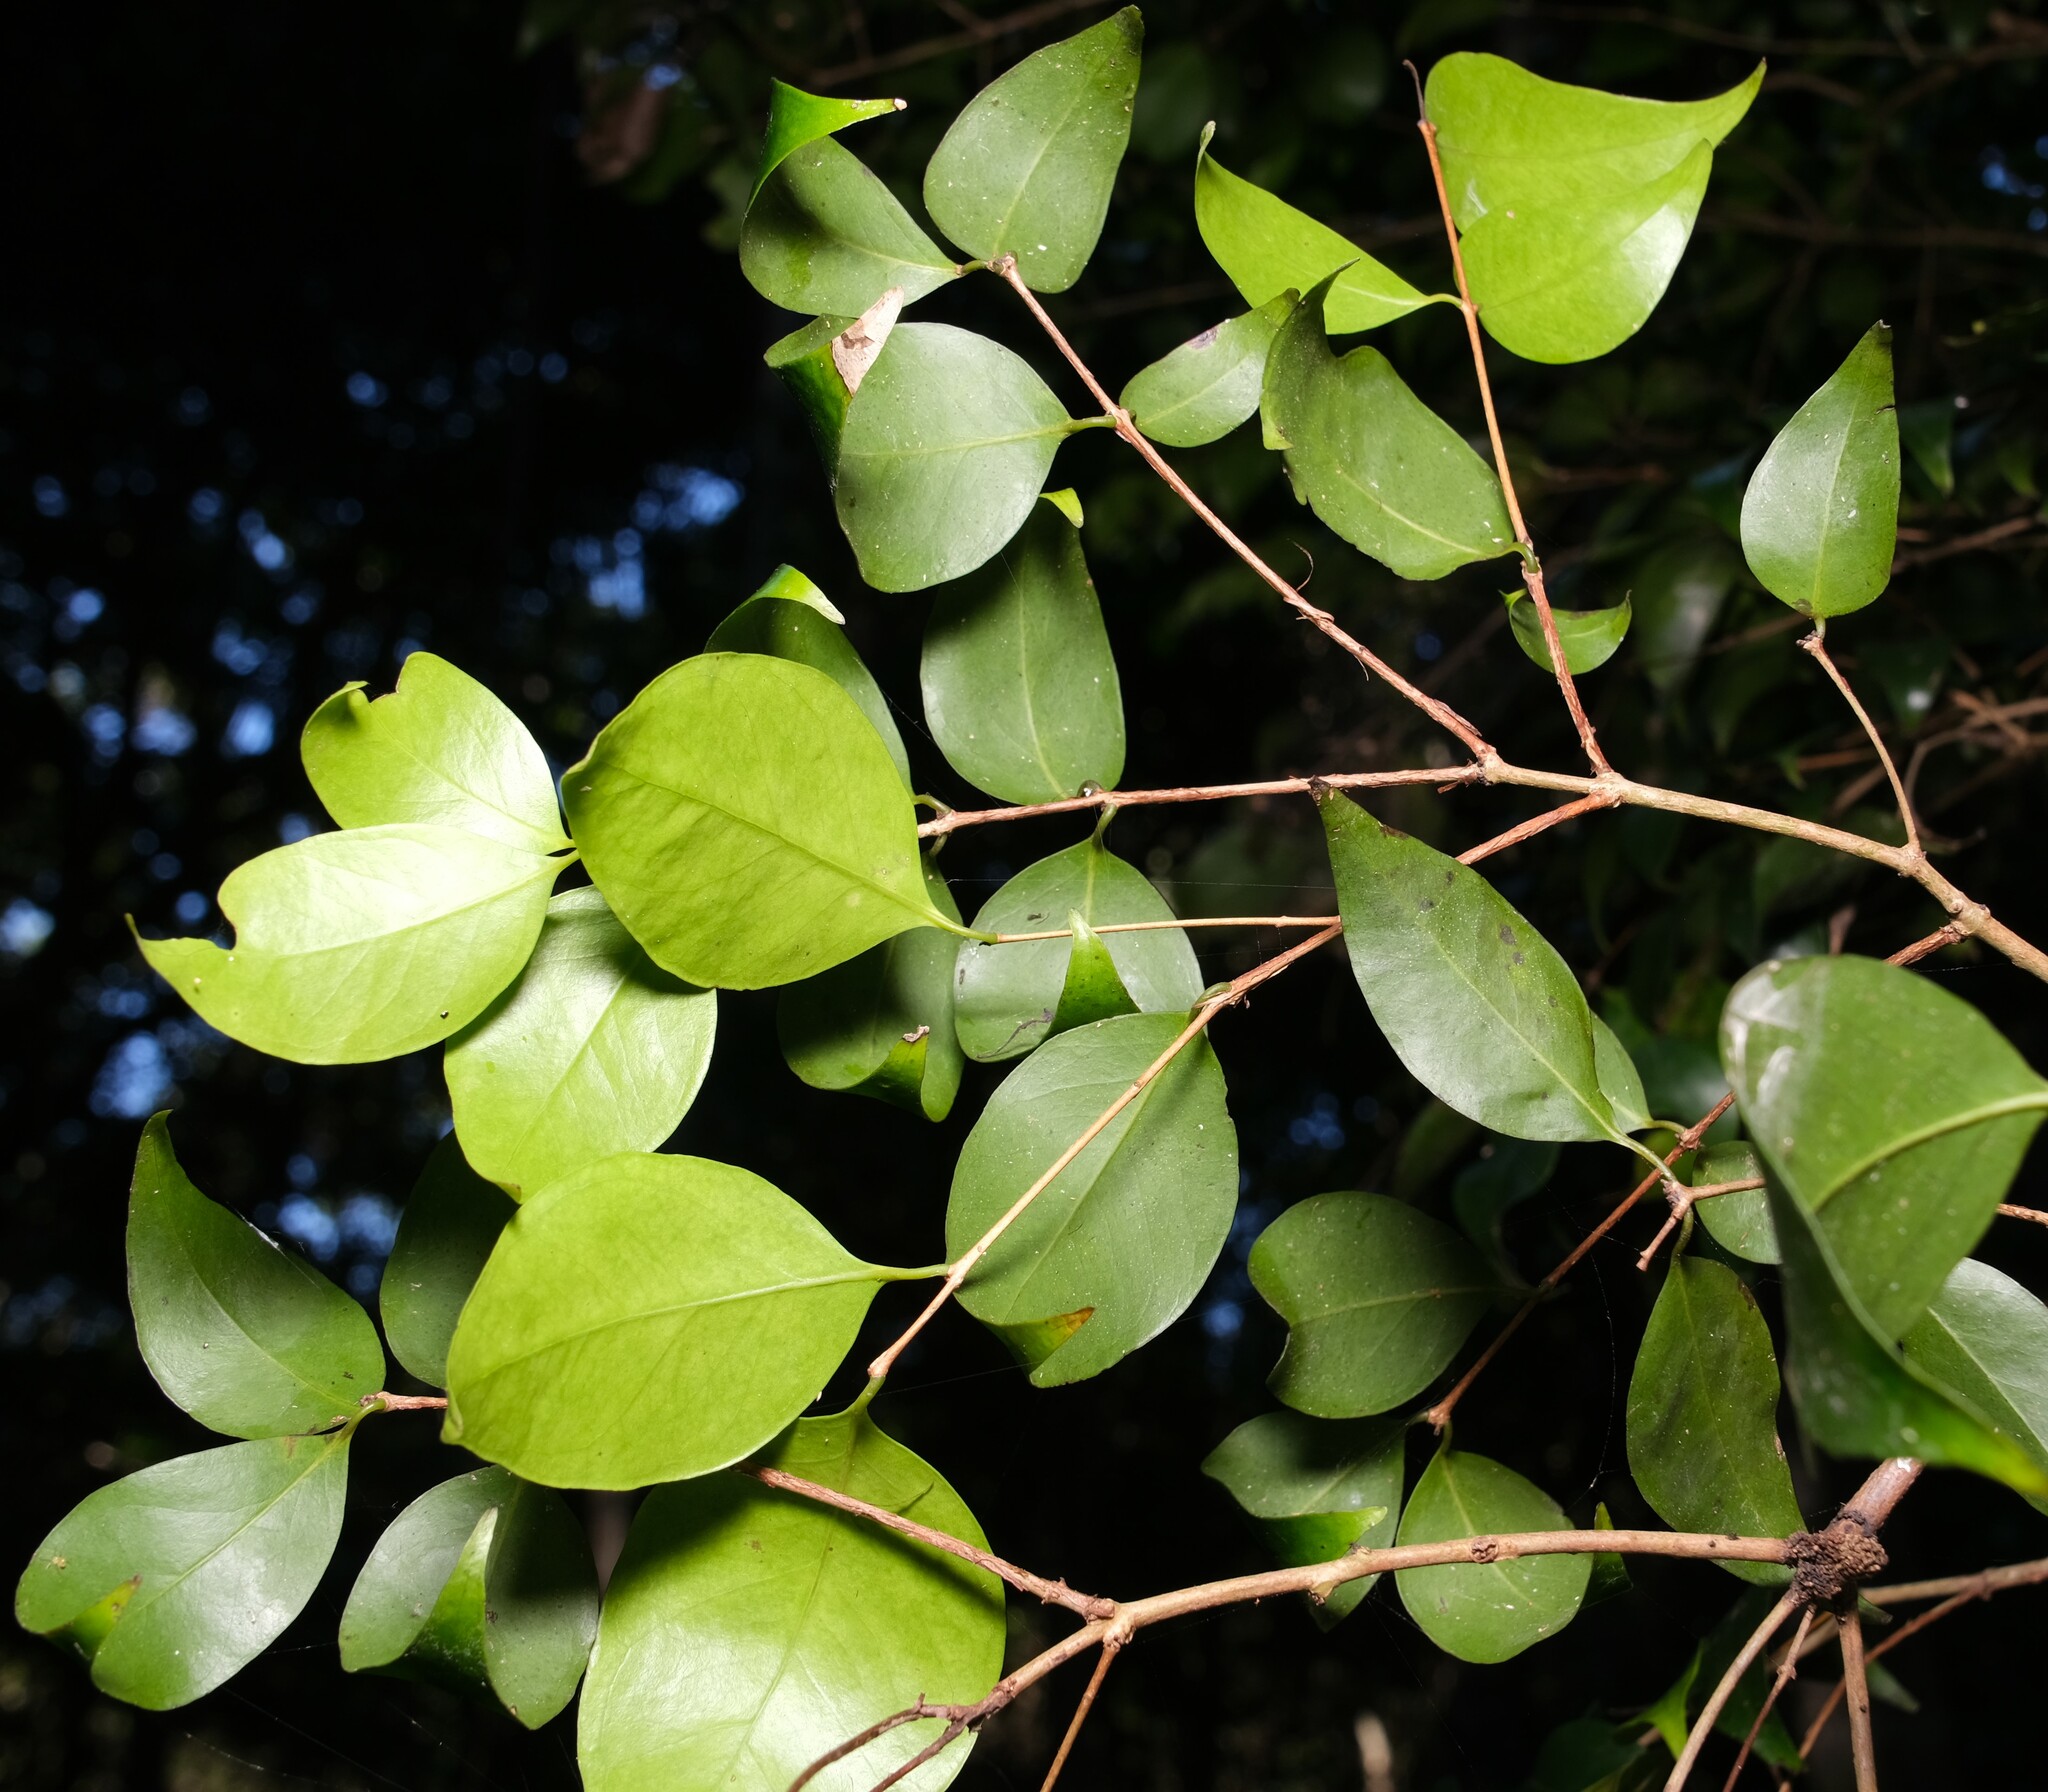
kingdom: Plantae
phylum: Tracheophyta
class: Magnoliopsida
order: Myrtales
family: Myrtaceae
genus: Gossia
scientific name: Gossia bidwillii
